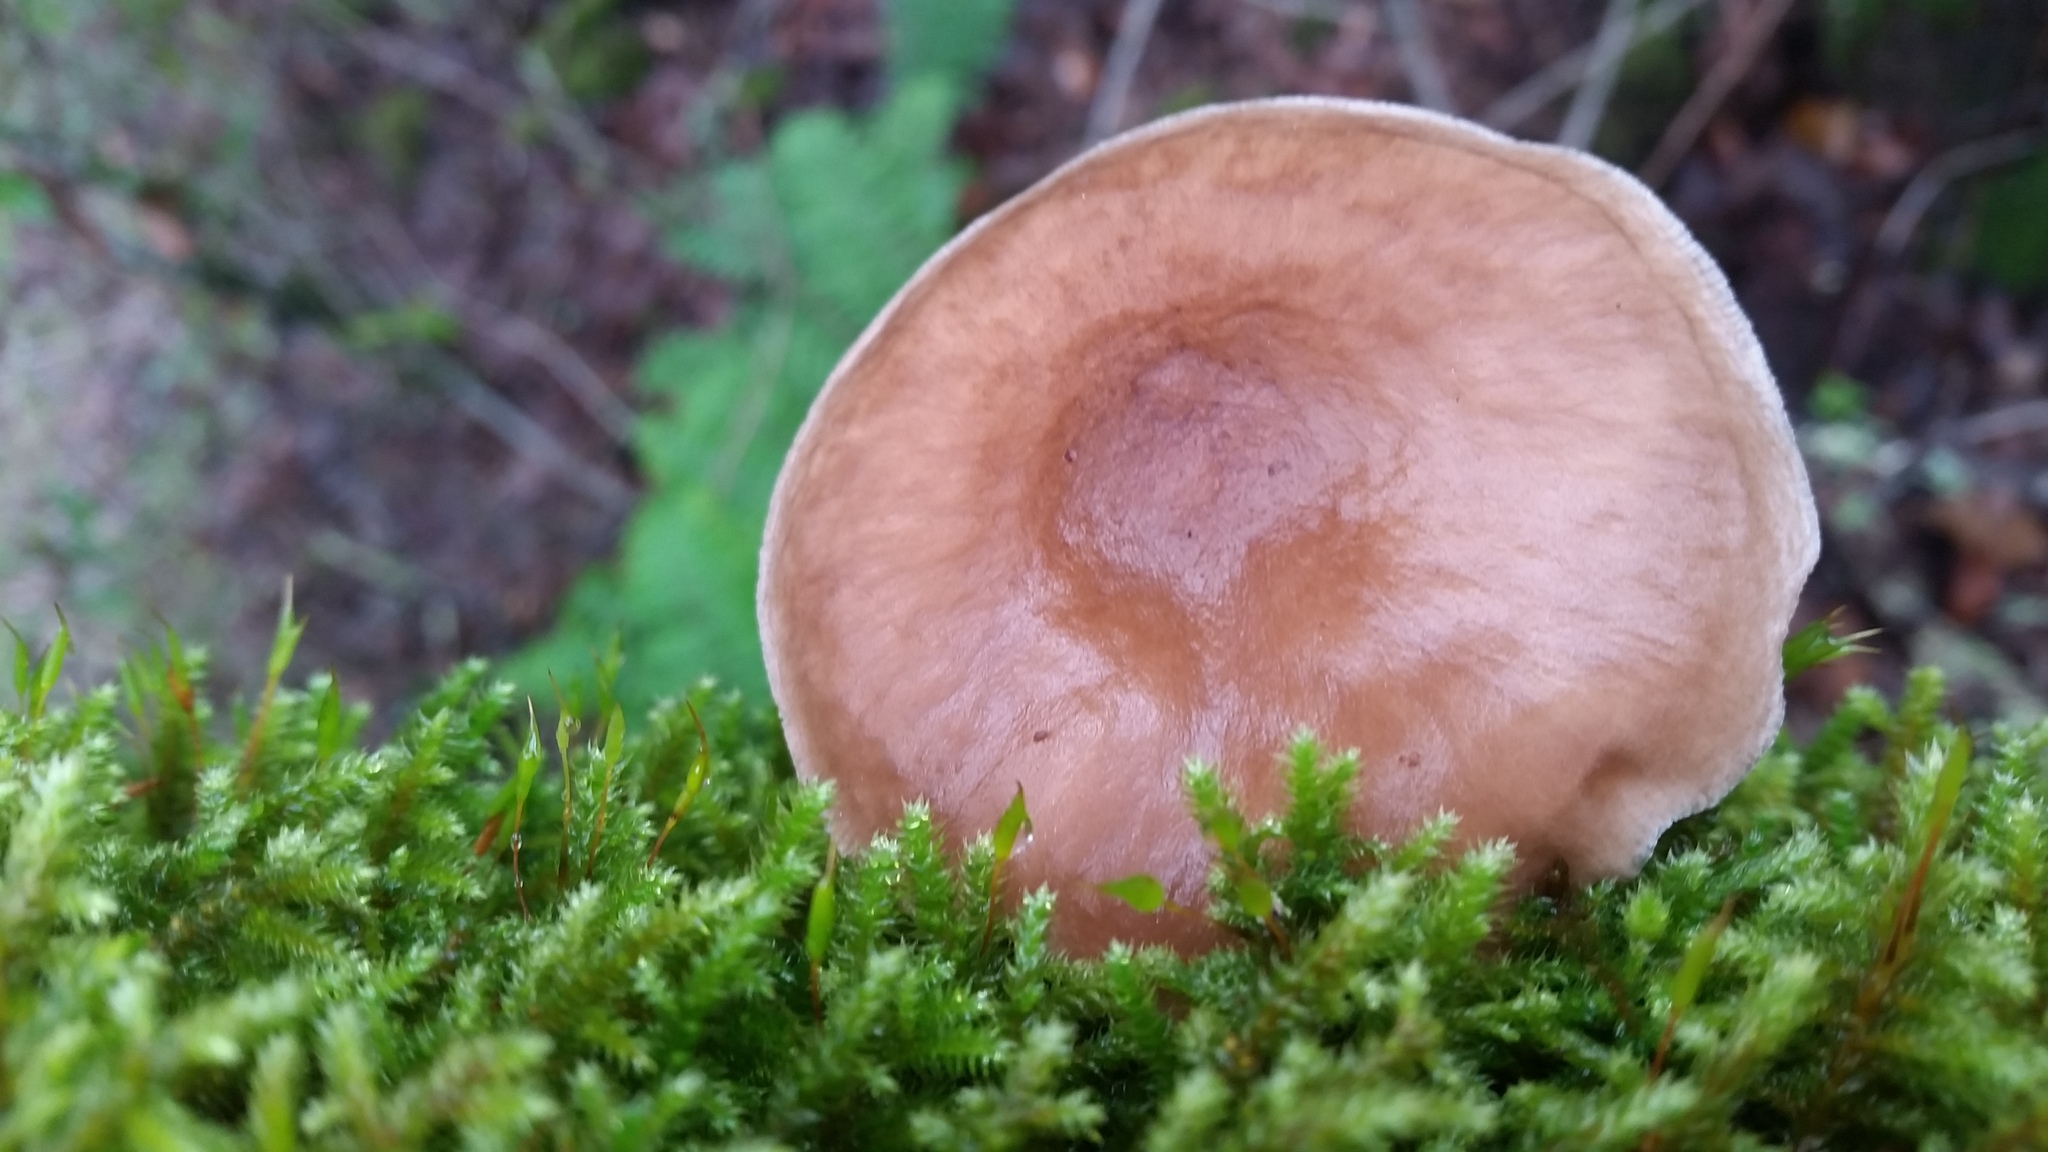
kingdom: Fungi
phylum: Basidiomycota
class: Agaricomycetes
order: Agaricales
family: Pluteaceae
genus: Pluteus
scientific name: Pluteus exilis
